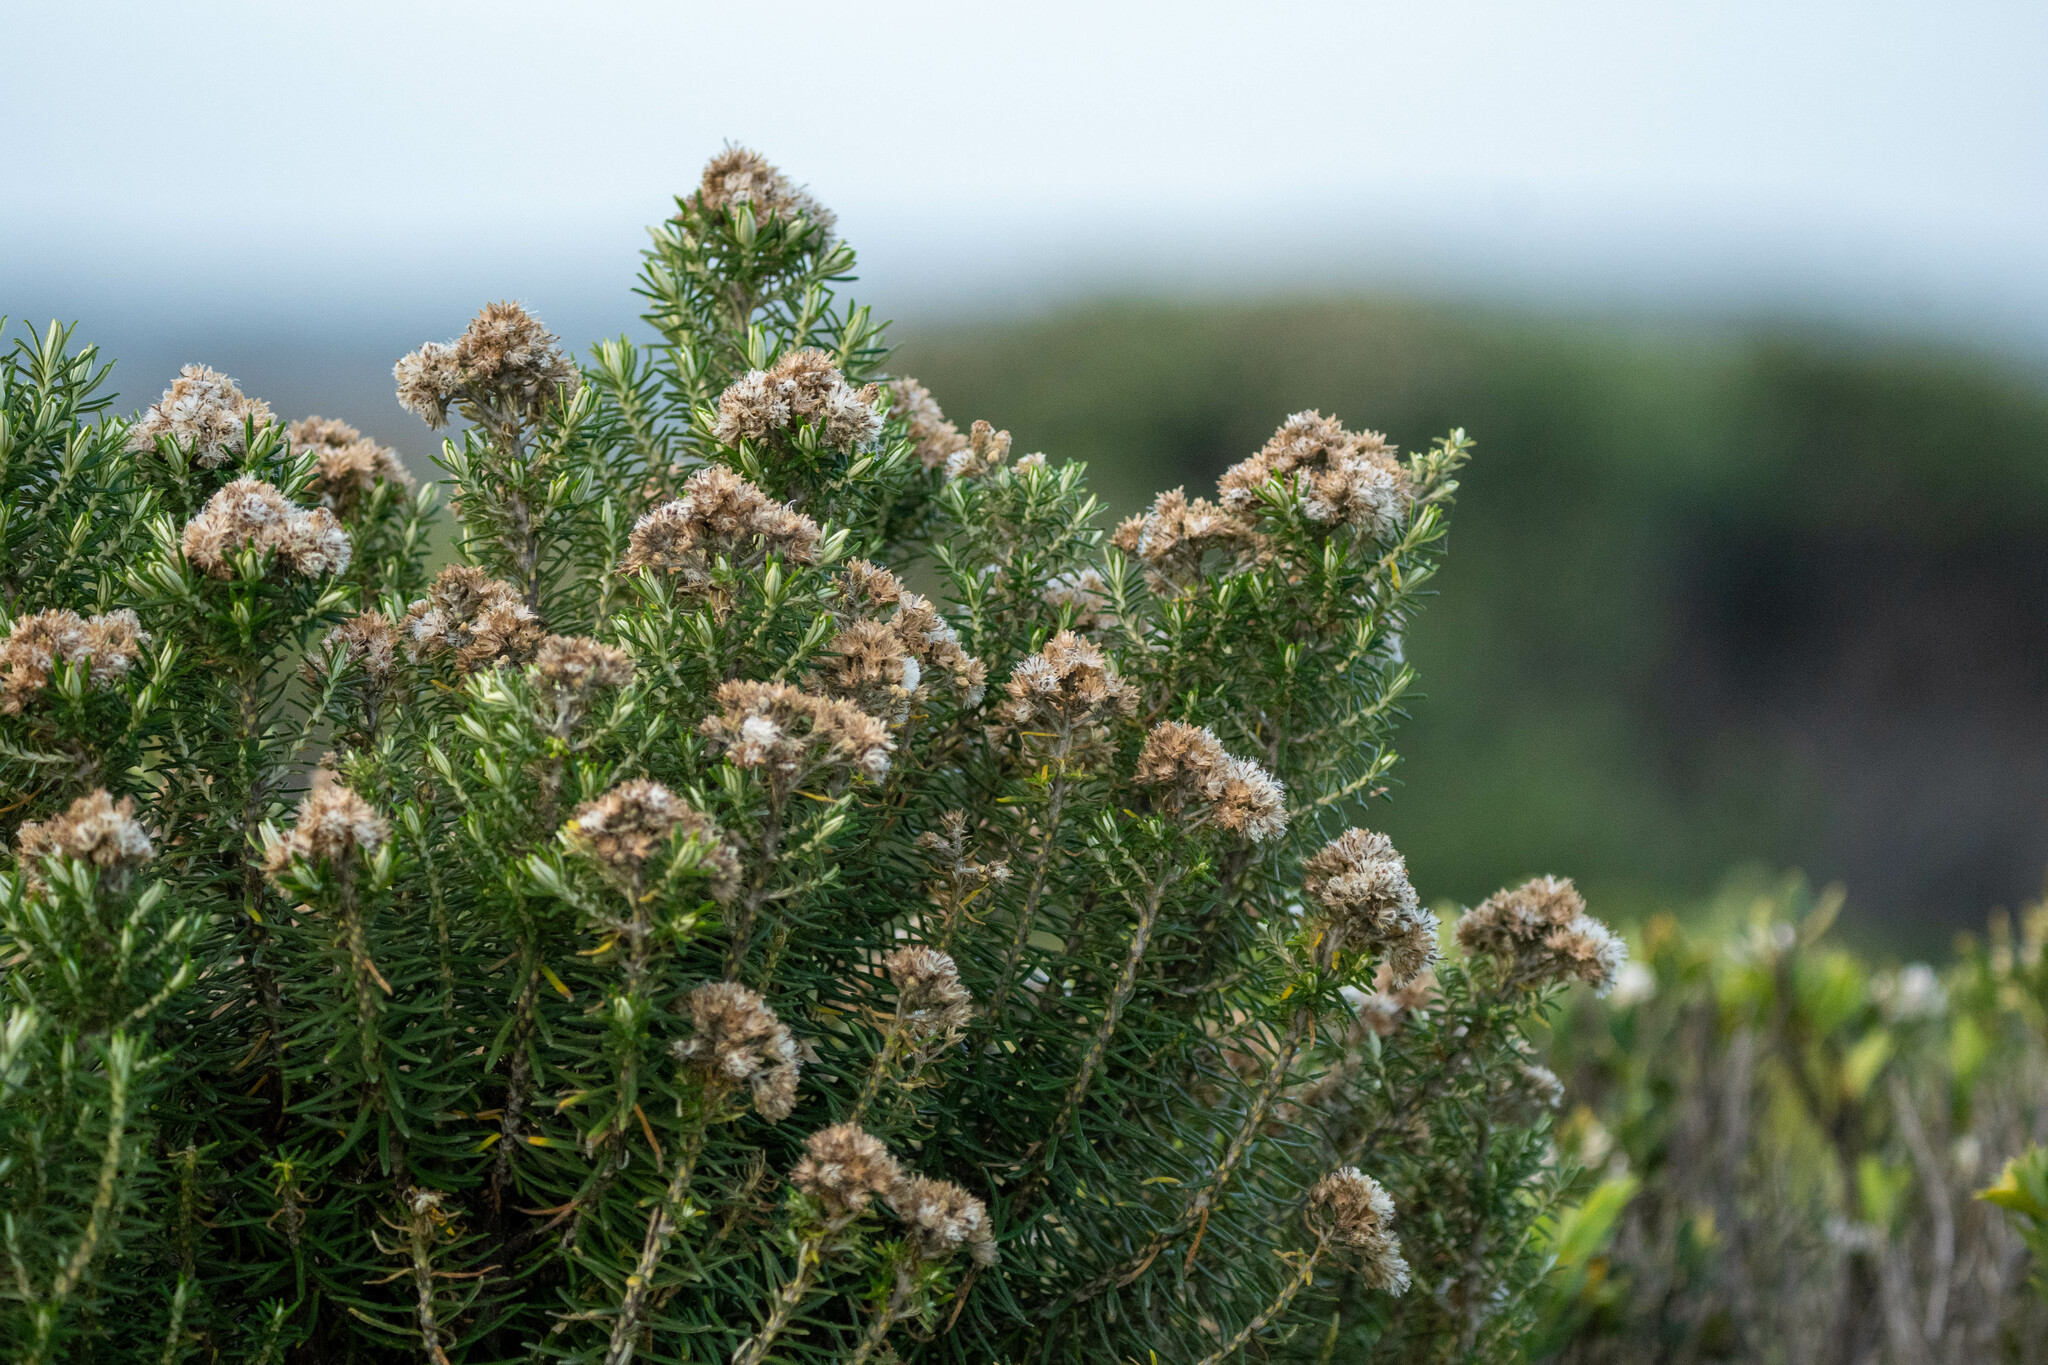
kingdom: Plantae
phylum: Tracheophyta
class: Magnoliopsida
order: Asterales
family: Asteraceae
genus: Ozothamnus
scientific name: Ozothamnus cinereus
